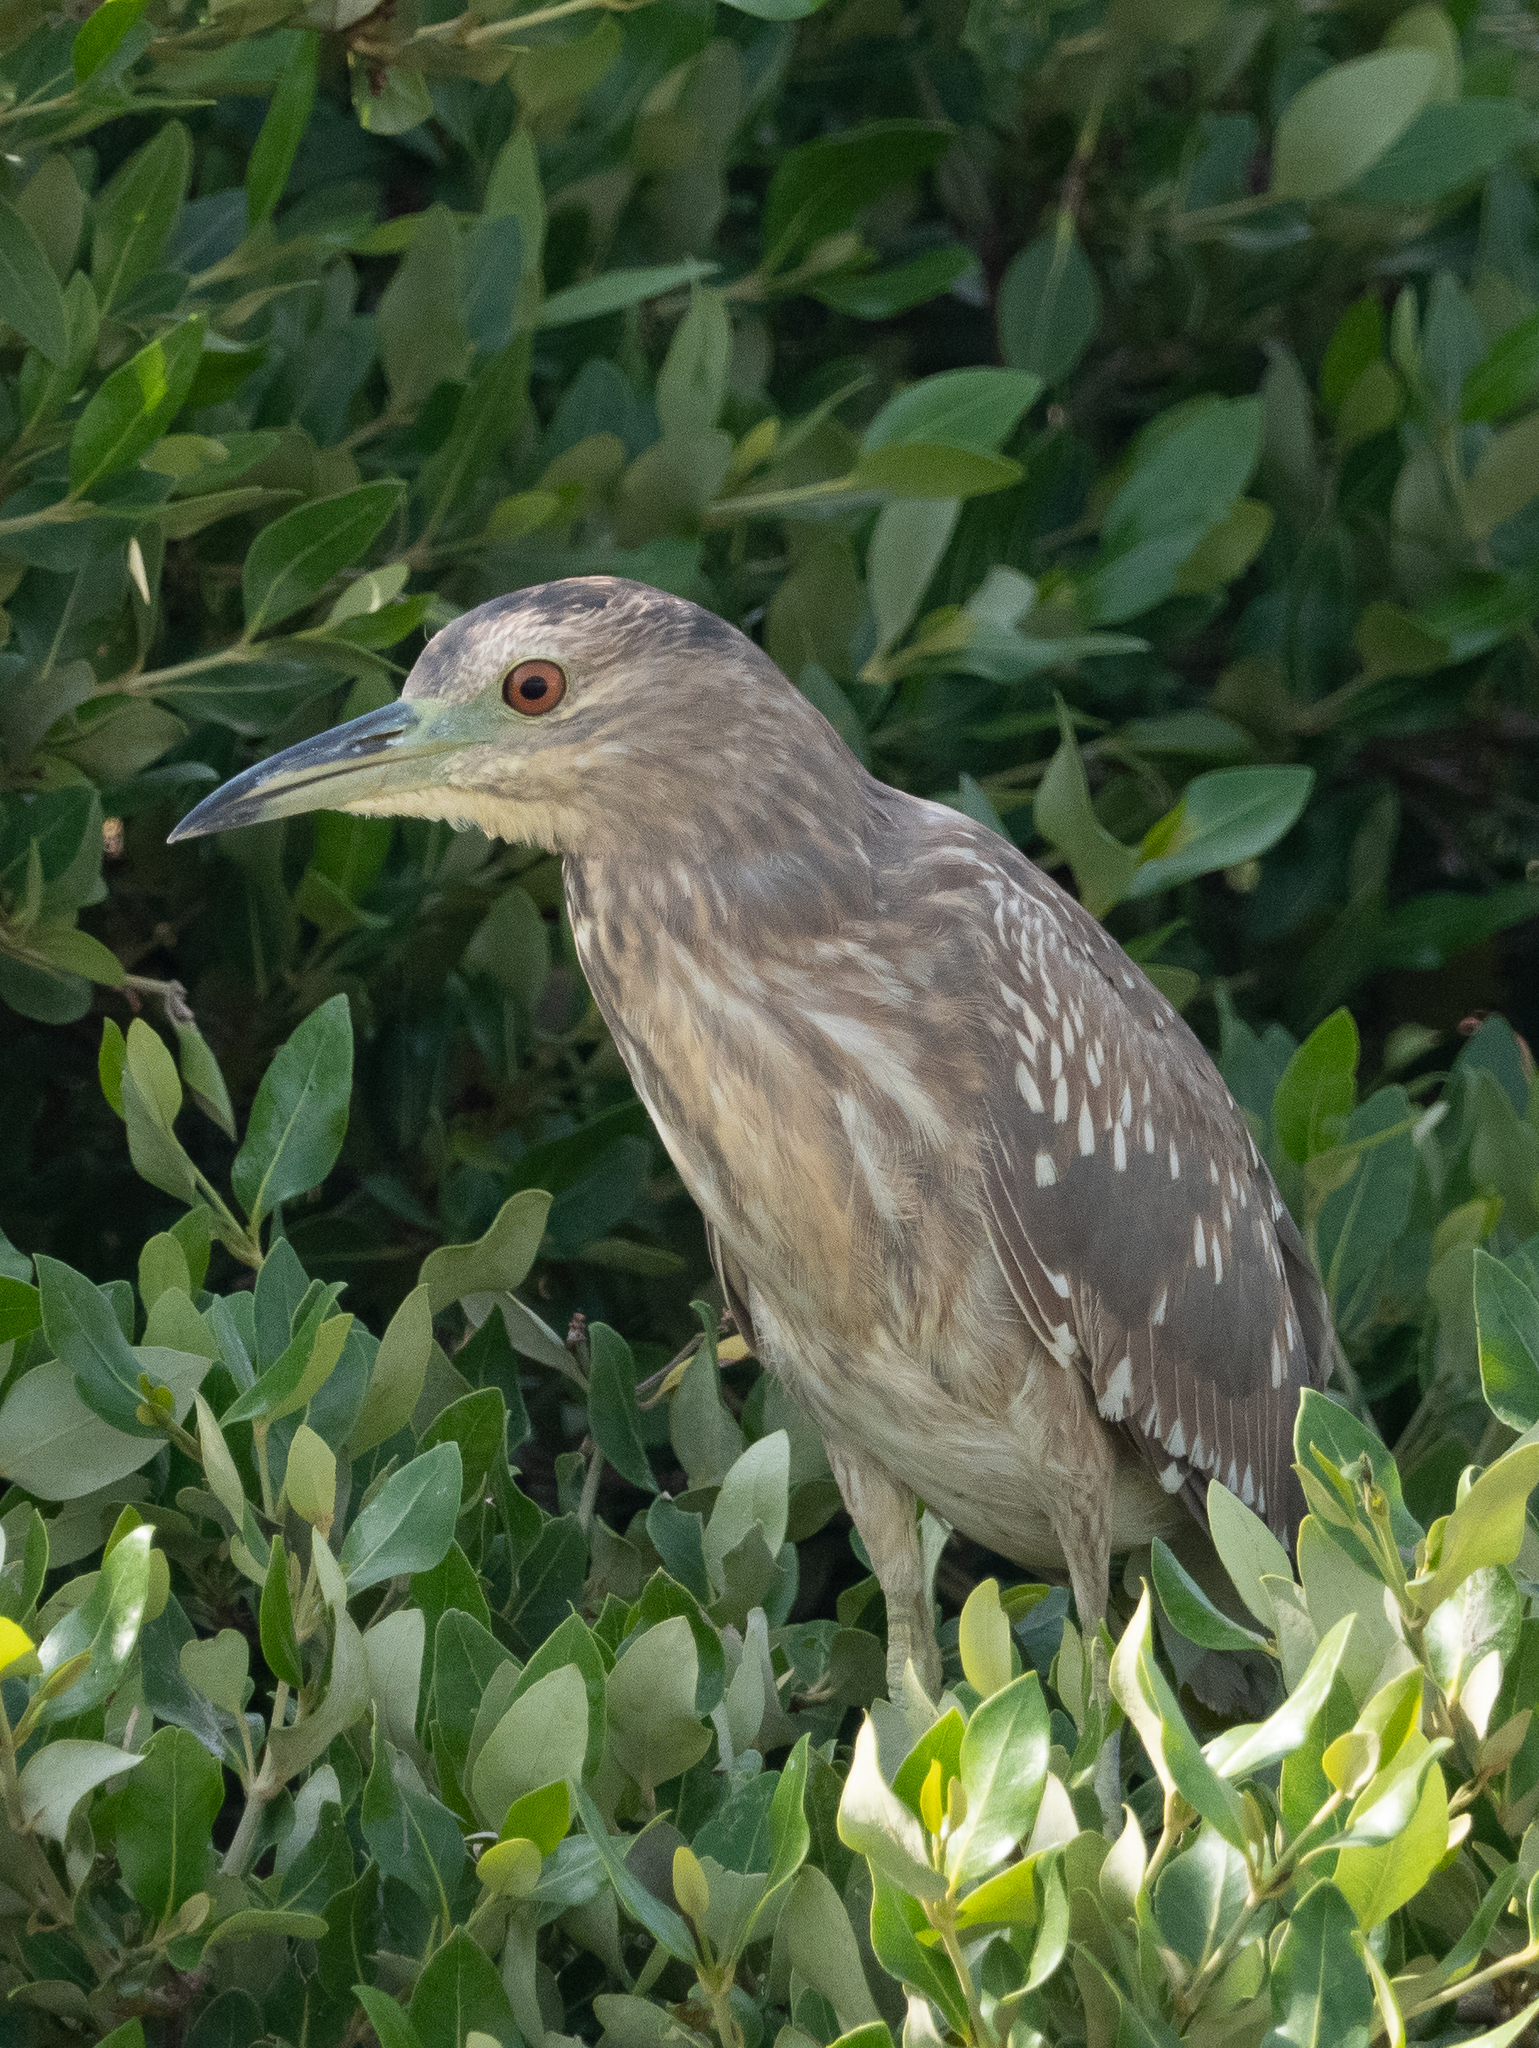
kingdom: Animalia
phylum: Chordata
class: Aves
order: Pelecaniformes
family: Ardeidae
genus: Nycticorax
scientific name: Nycticorax nycticorax
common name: Black-crowned night heron
